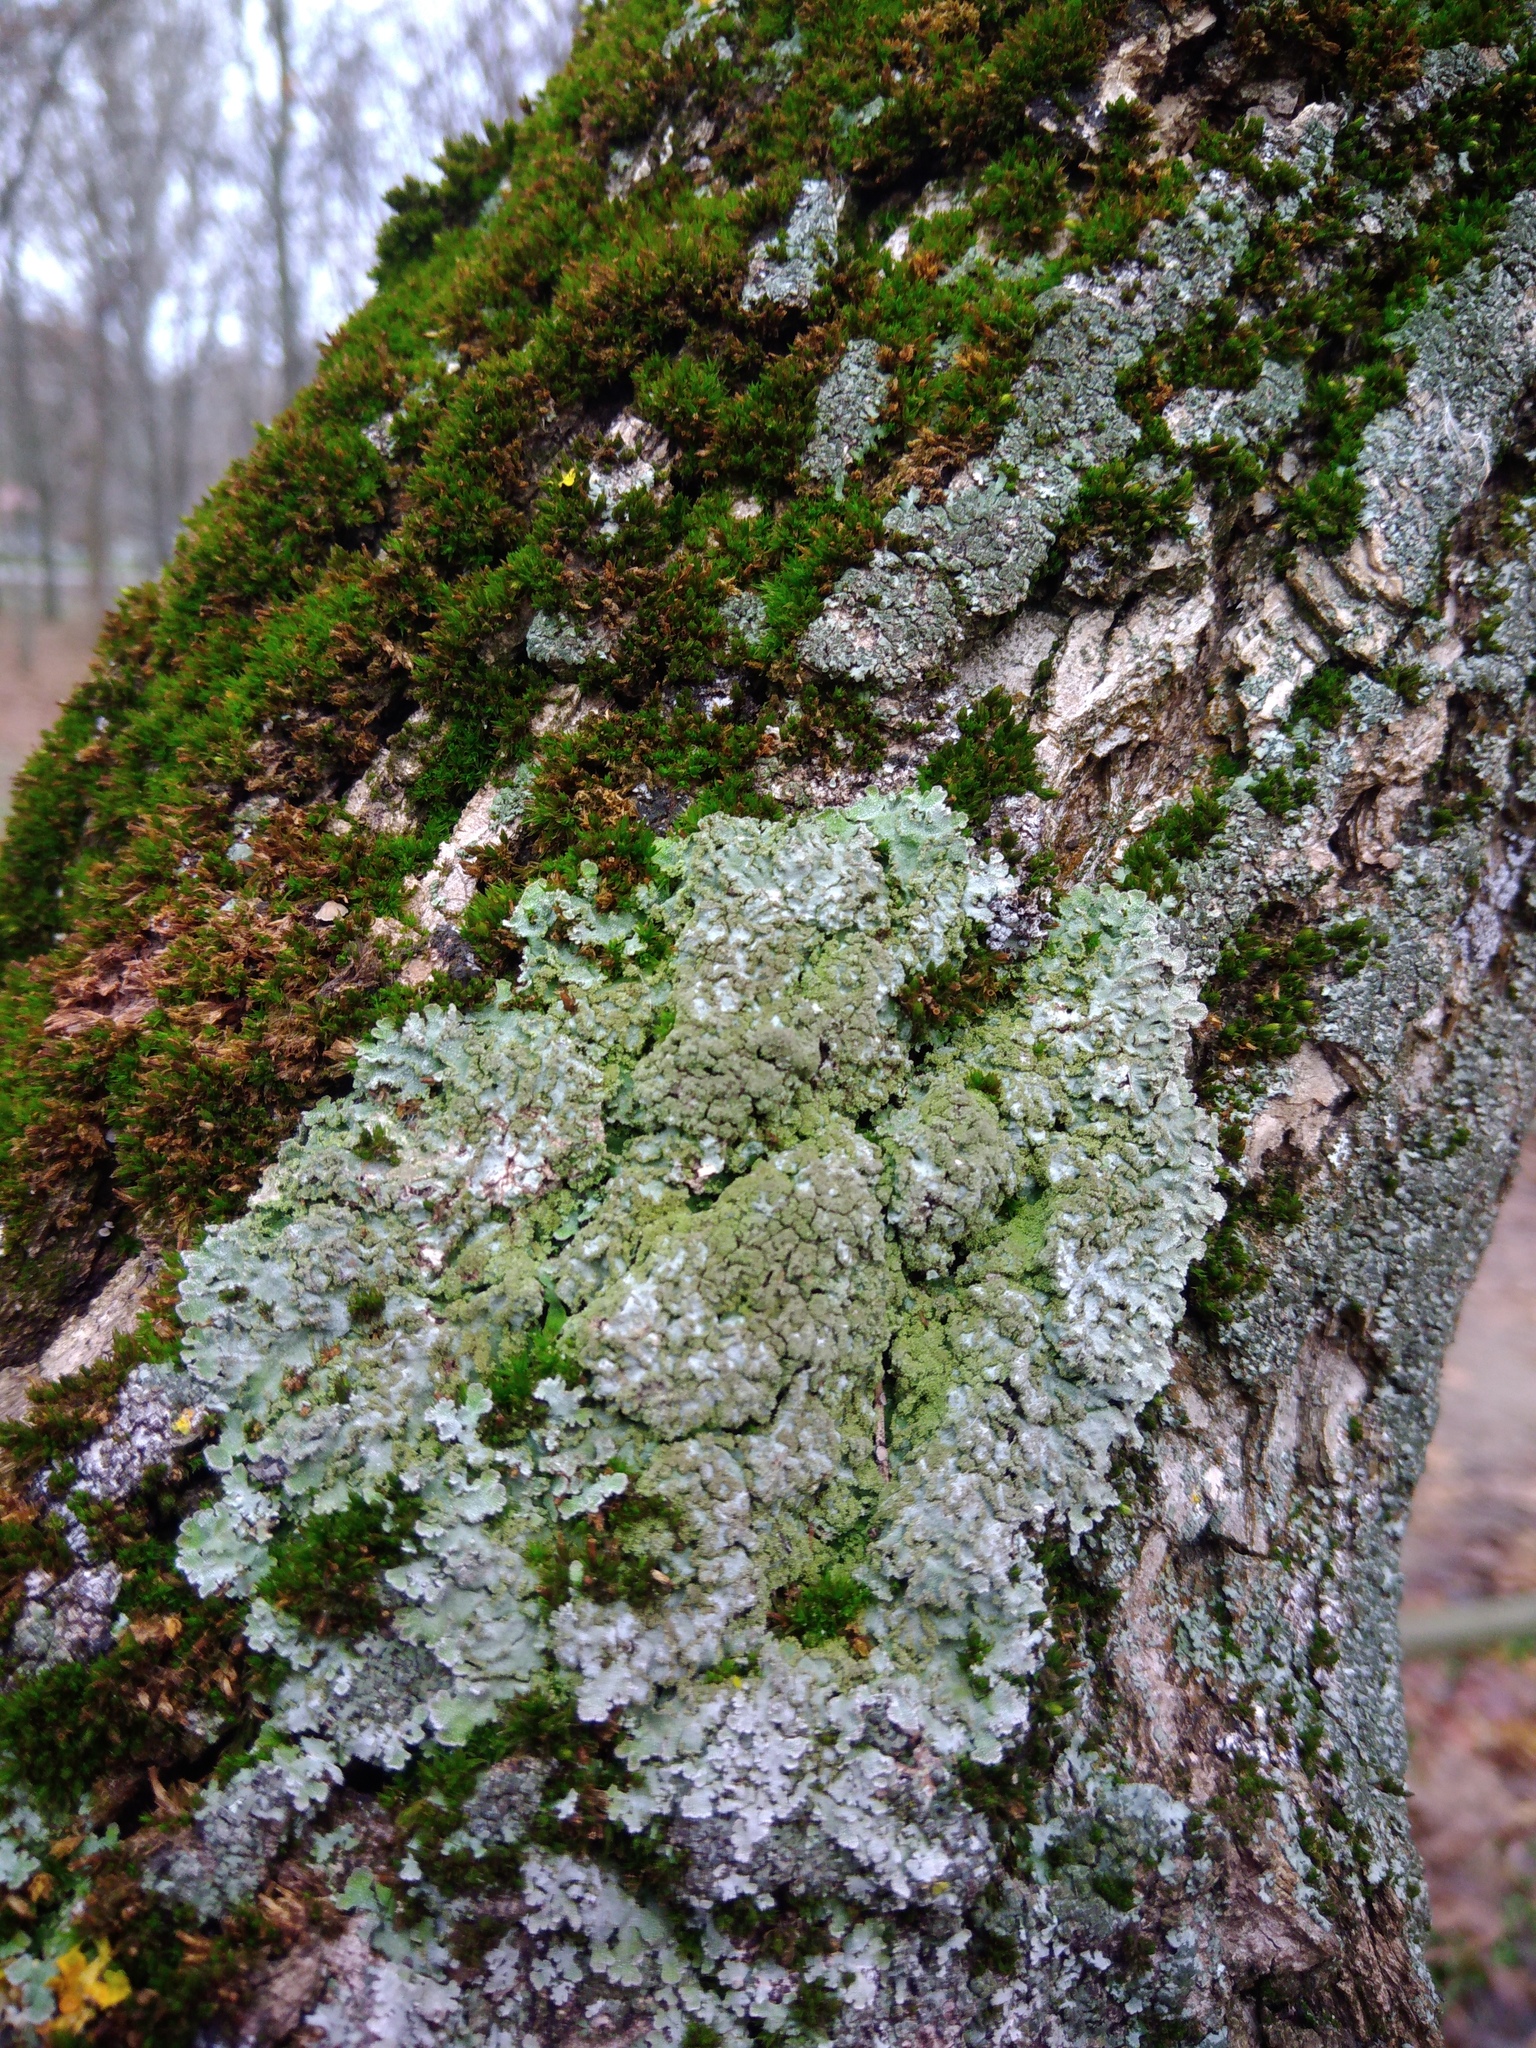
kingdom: Fungi
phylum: Ascomycota
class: Lecanoromycetes
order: Caliciales
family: Physciaceae
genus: Poeltonia
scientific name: Poeltonia grisea
